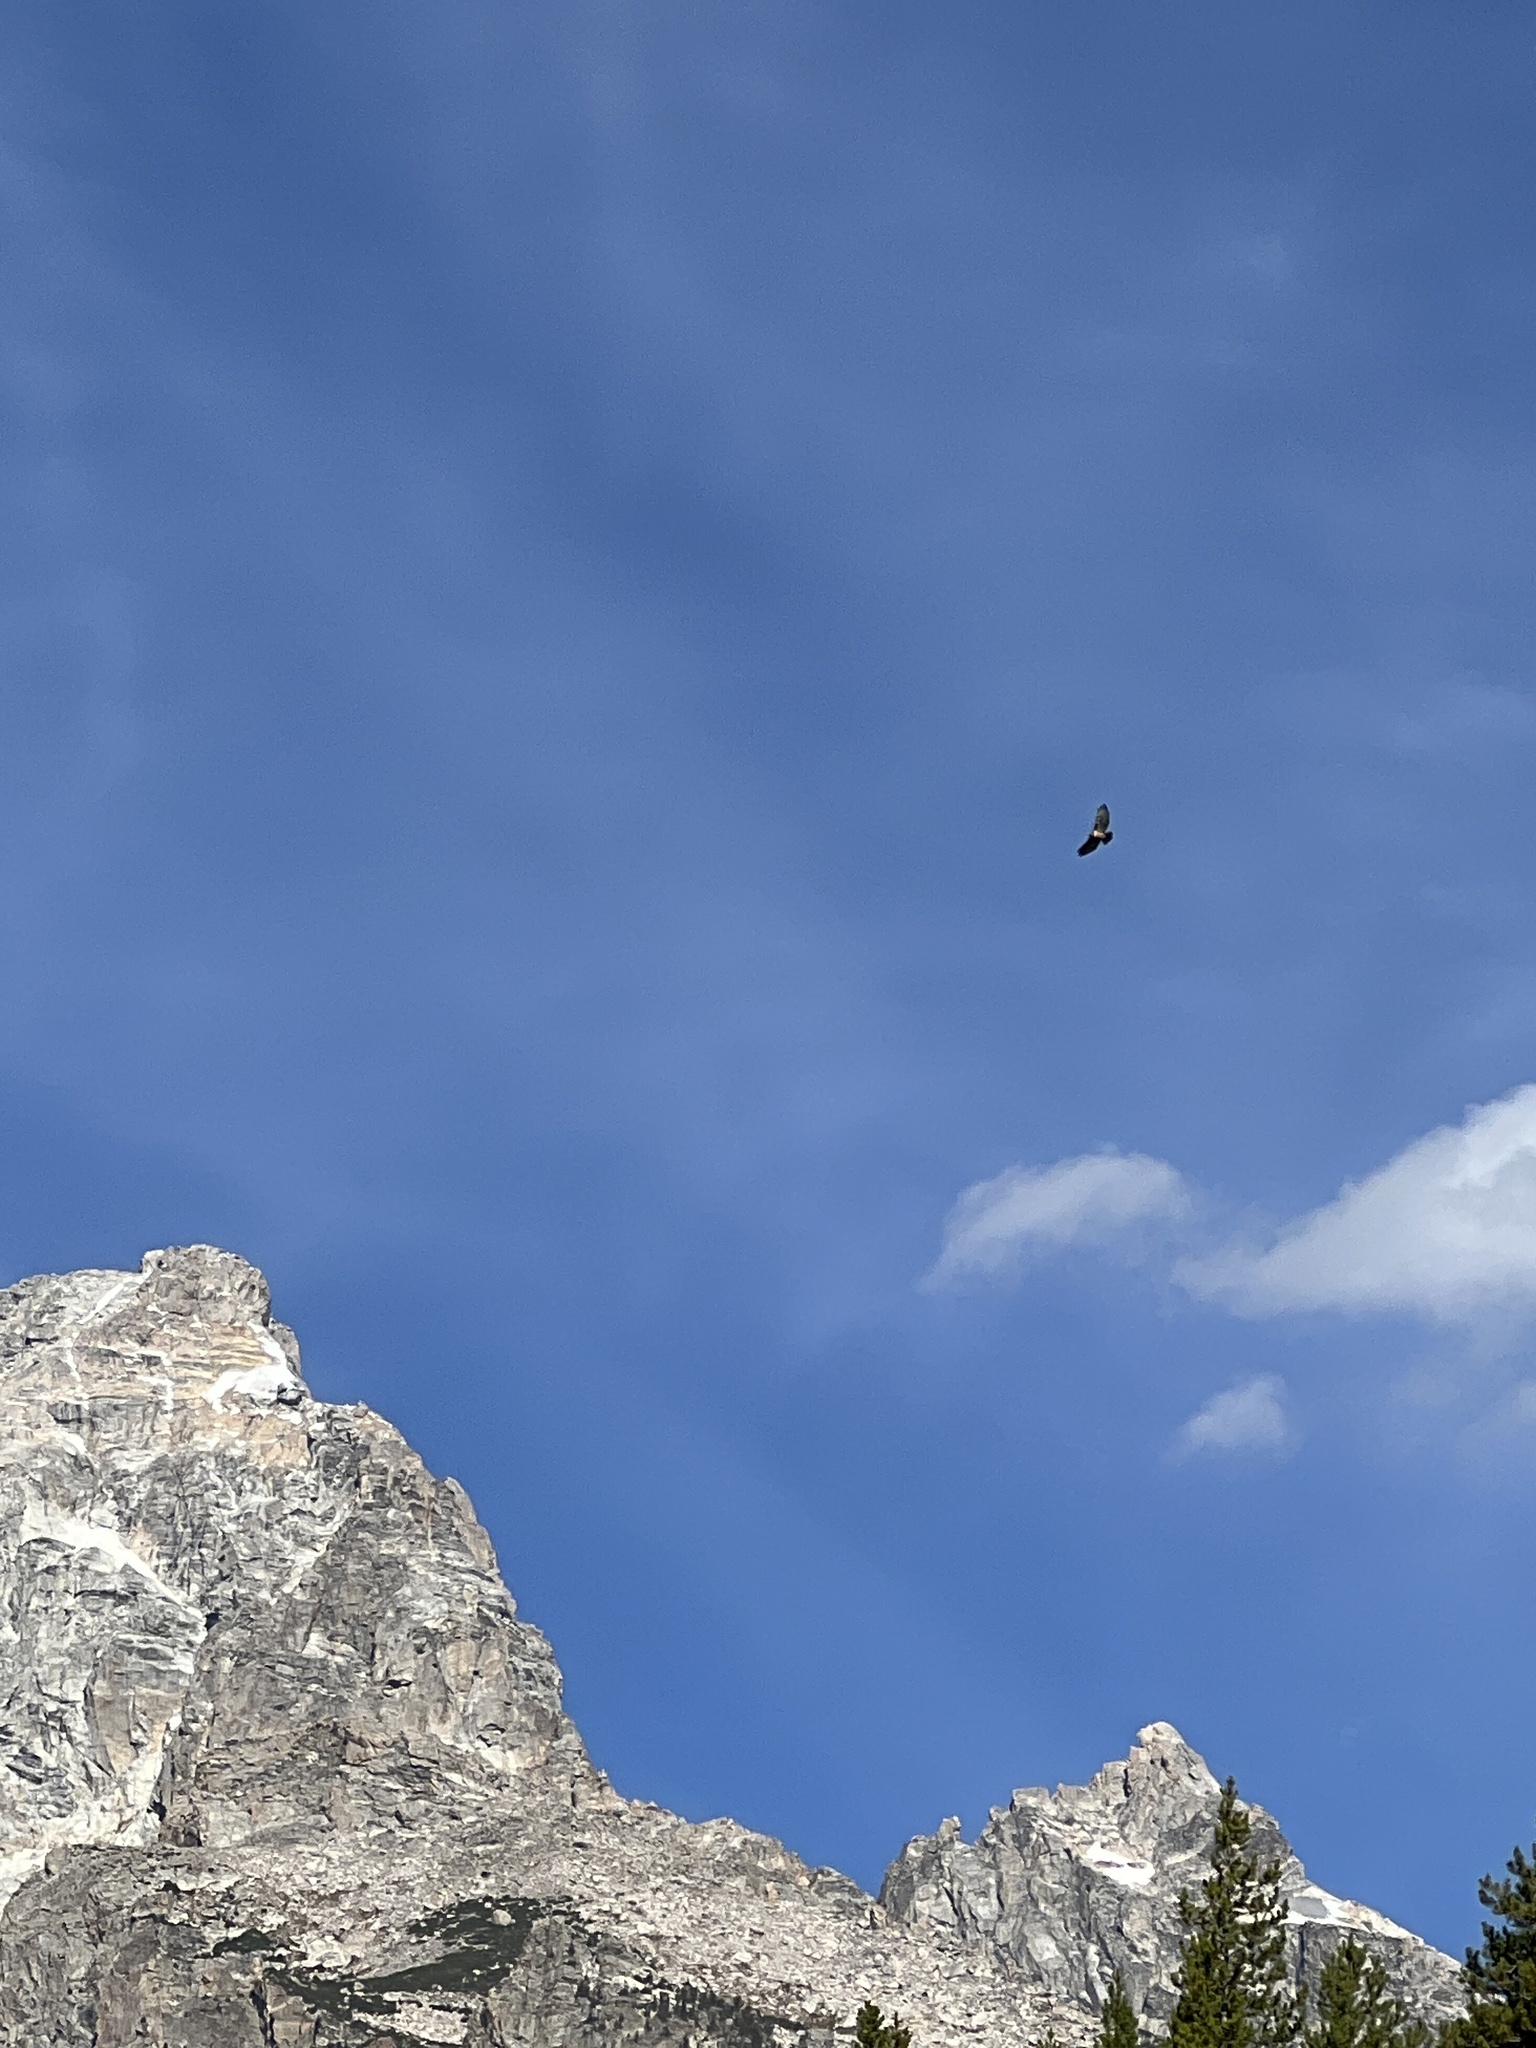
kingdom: Animalia
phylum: Chordata
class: Aves
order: Accipitriformes
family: Accipitridae
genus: Buteo
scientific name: Buteo jamaicensis
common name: Red-tailed hawk
